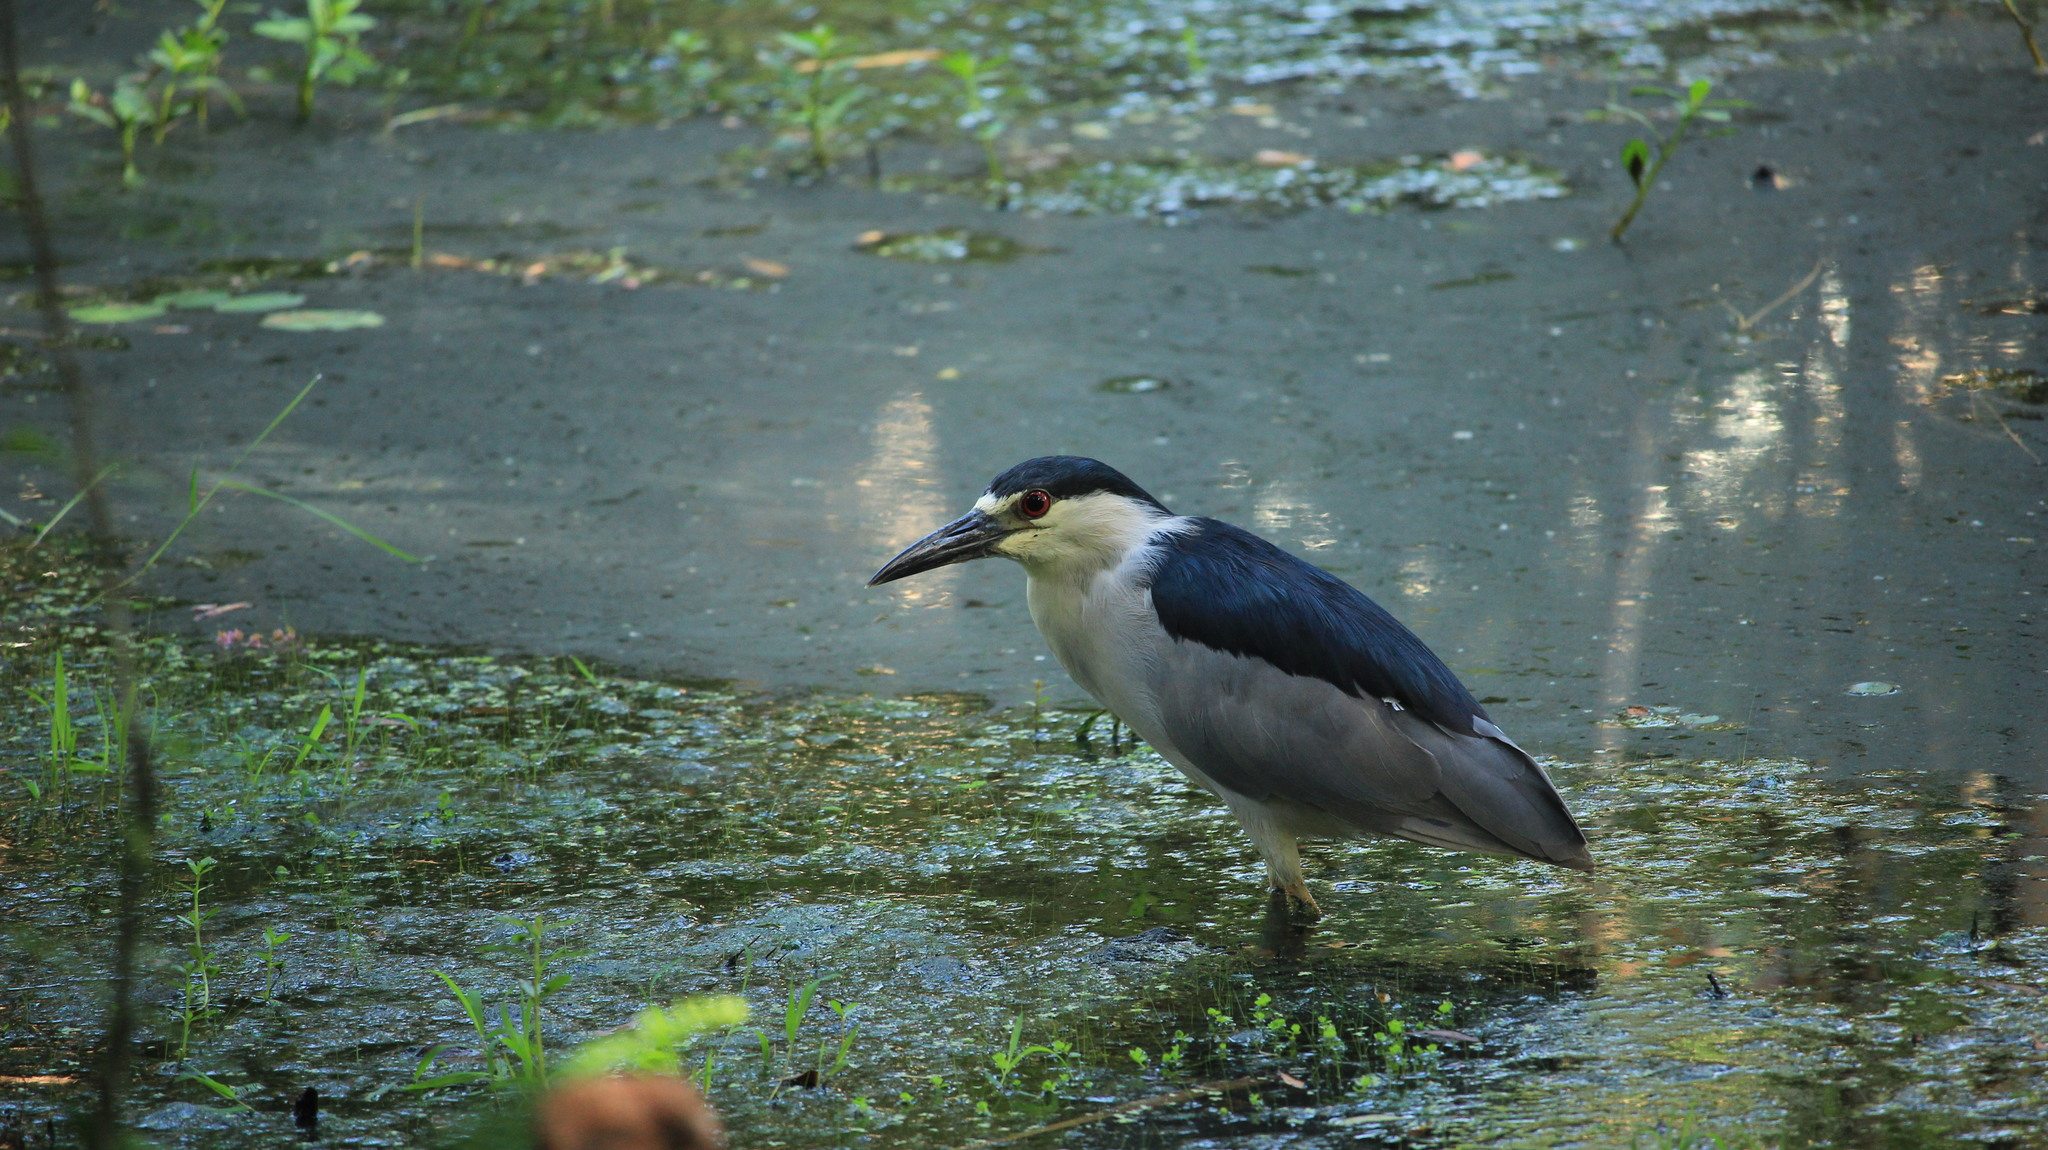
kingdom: Animalia
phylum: Chordata
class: Aves
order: Pelecaniformes
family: Ardeidae
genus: Nycticorax
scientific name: Nycticorax nycticorax
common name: Black-crowned night heron
